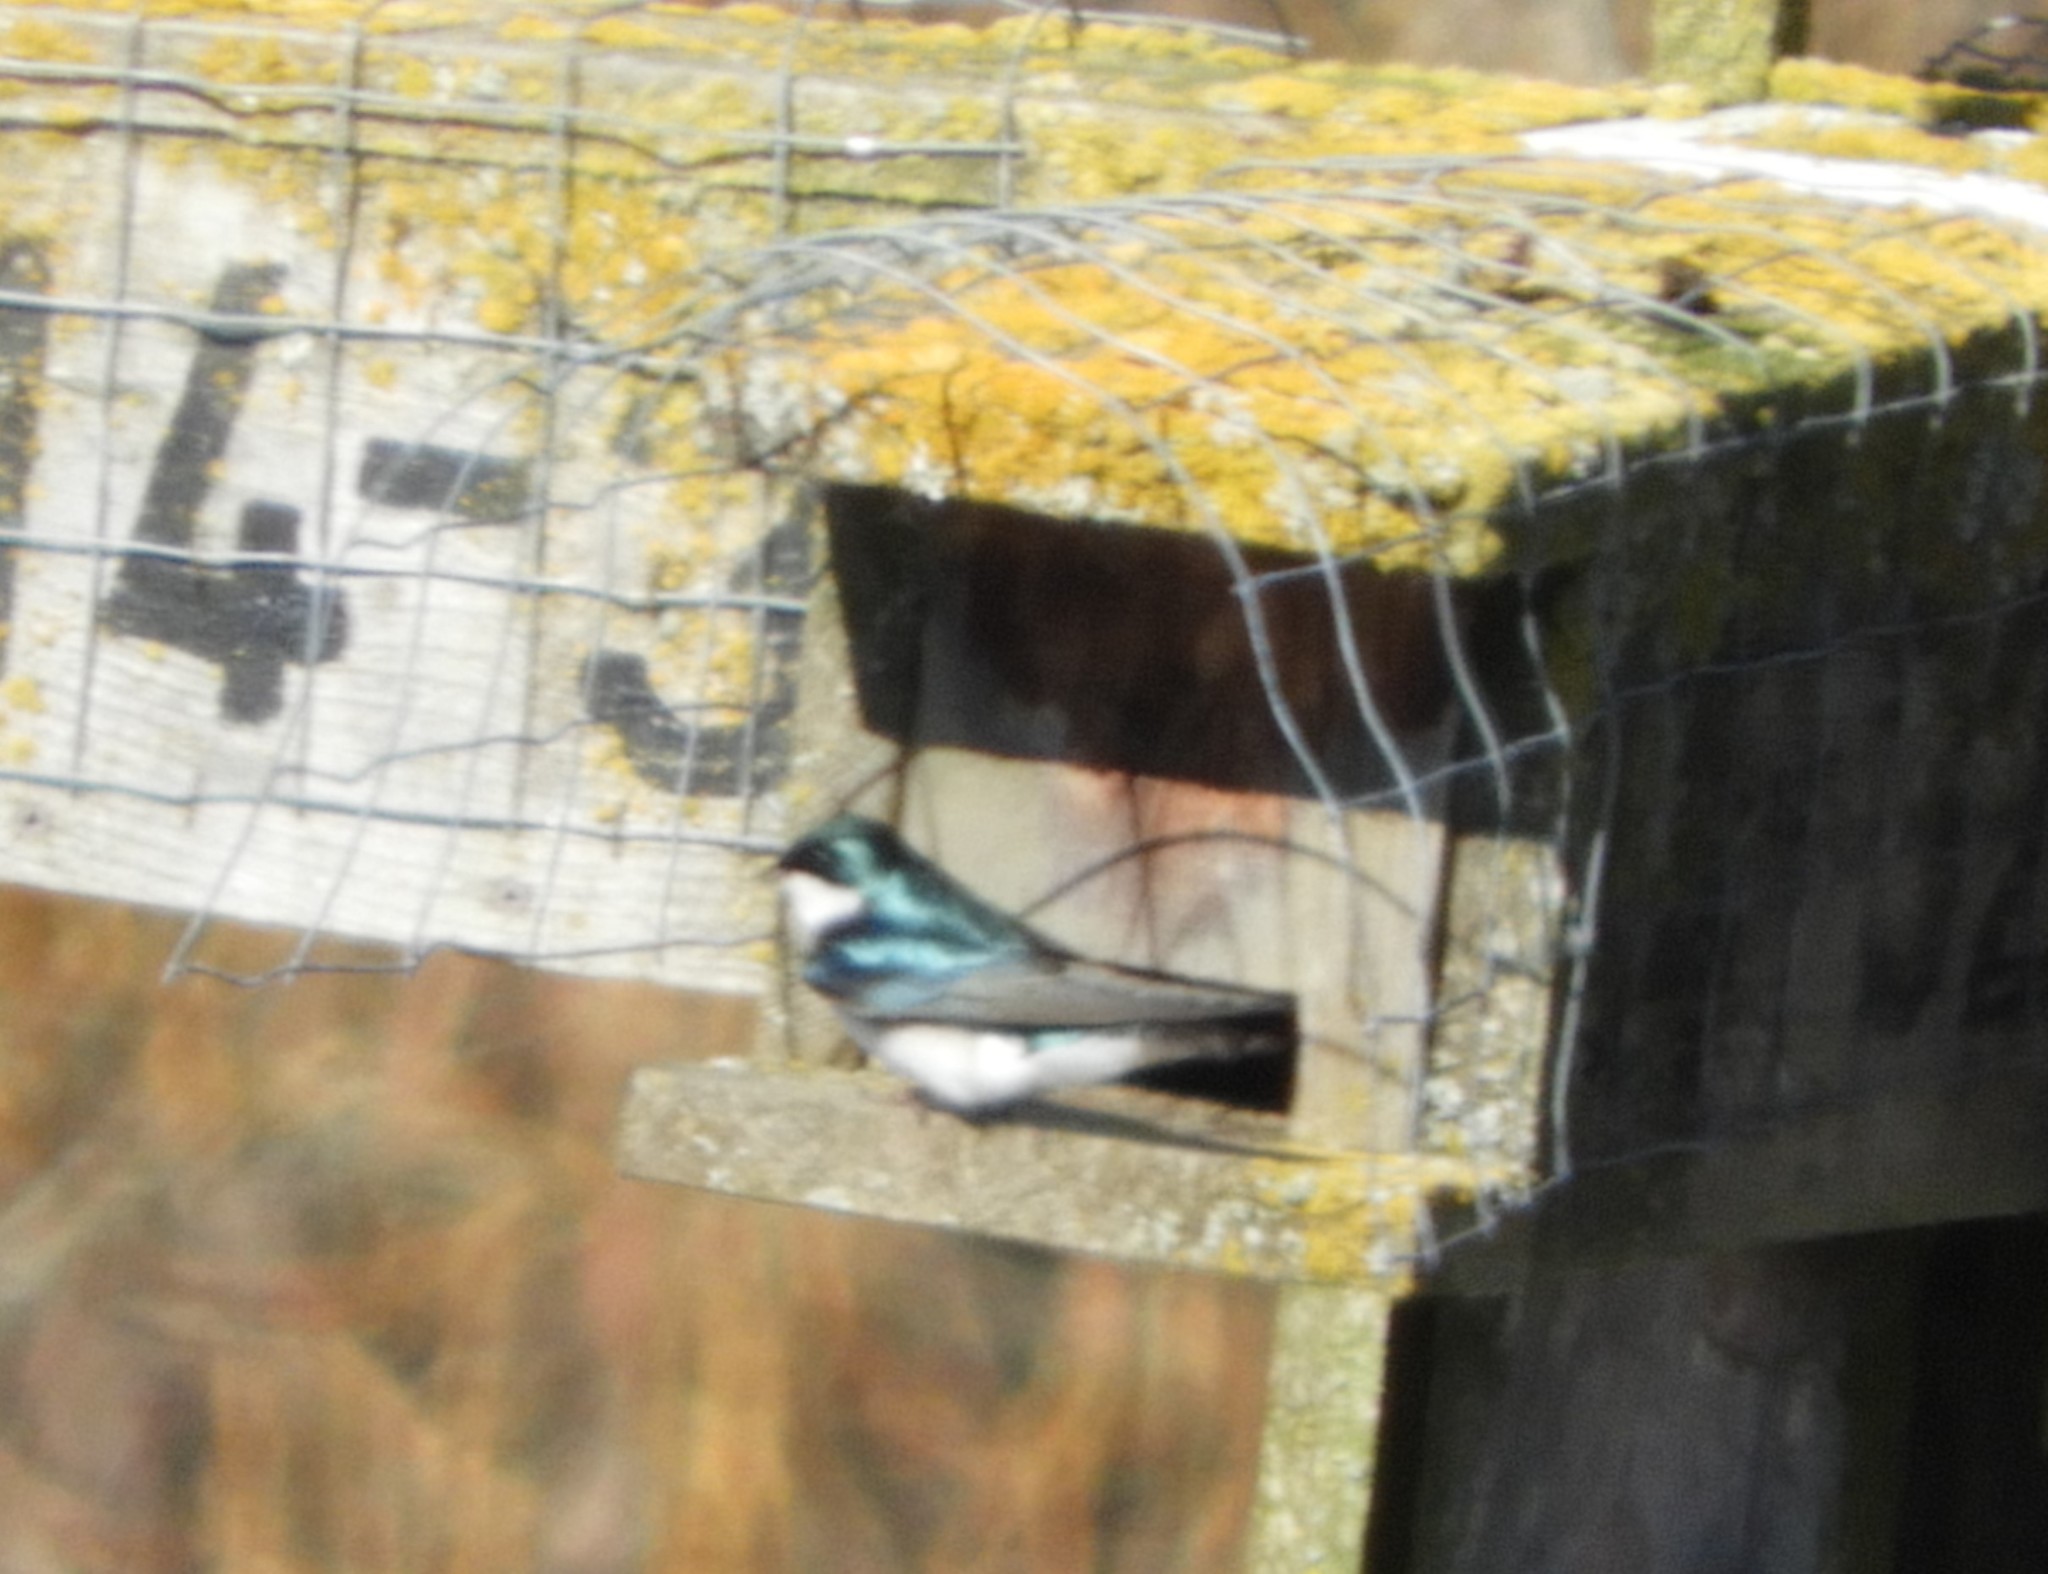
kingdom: Animalia
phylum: Chordata
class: Aves
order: Passeriformes
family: Hirundinidae
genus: Tachycineta
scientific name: Tachycineta bicolor
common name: Tree swallow
